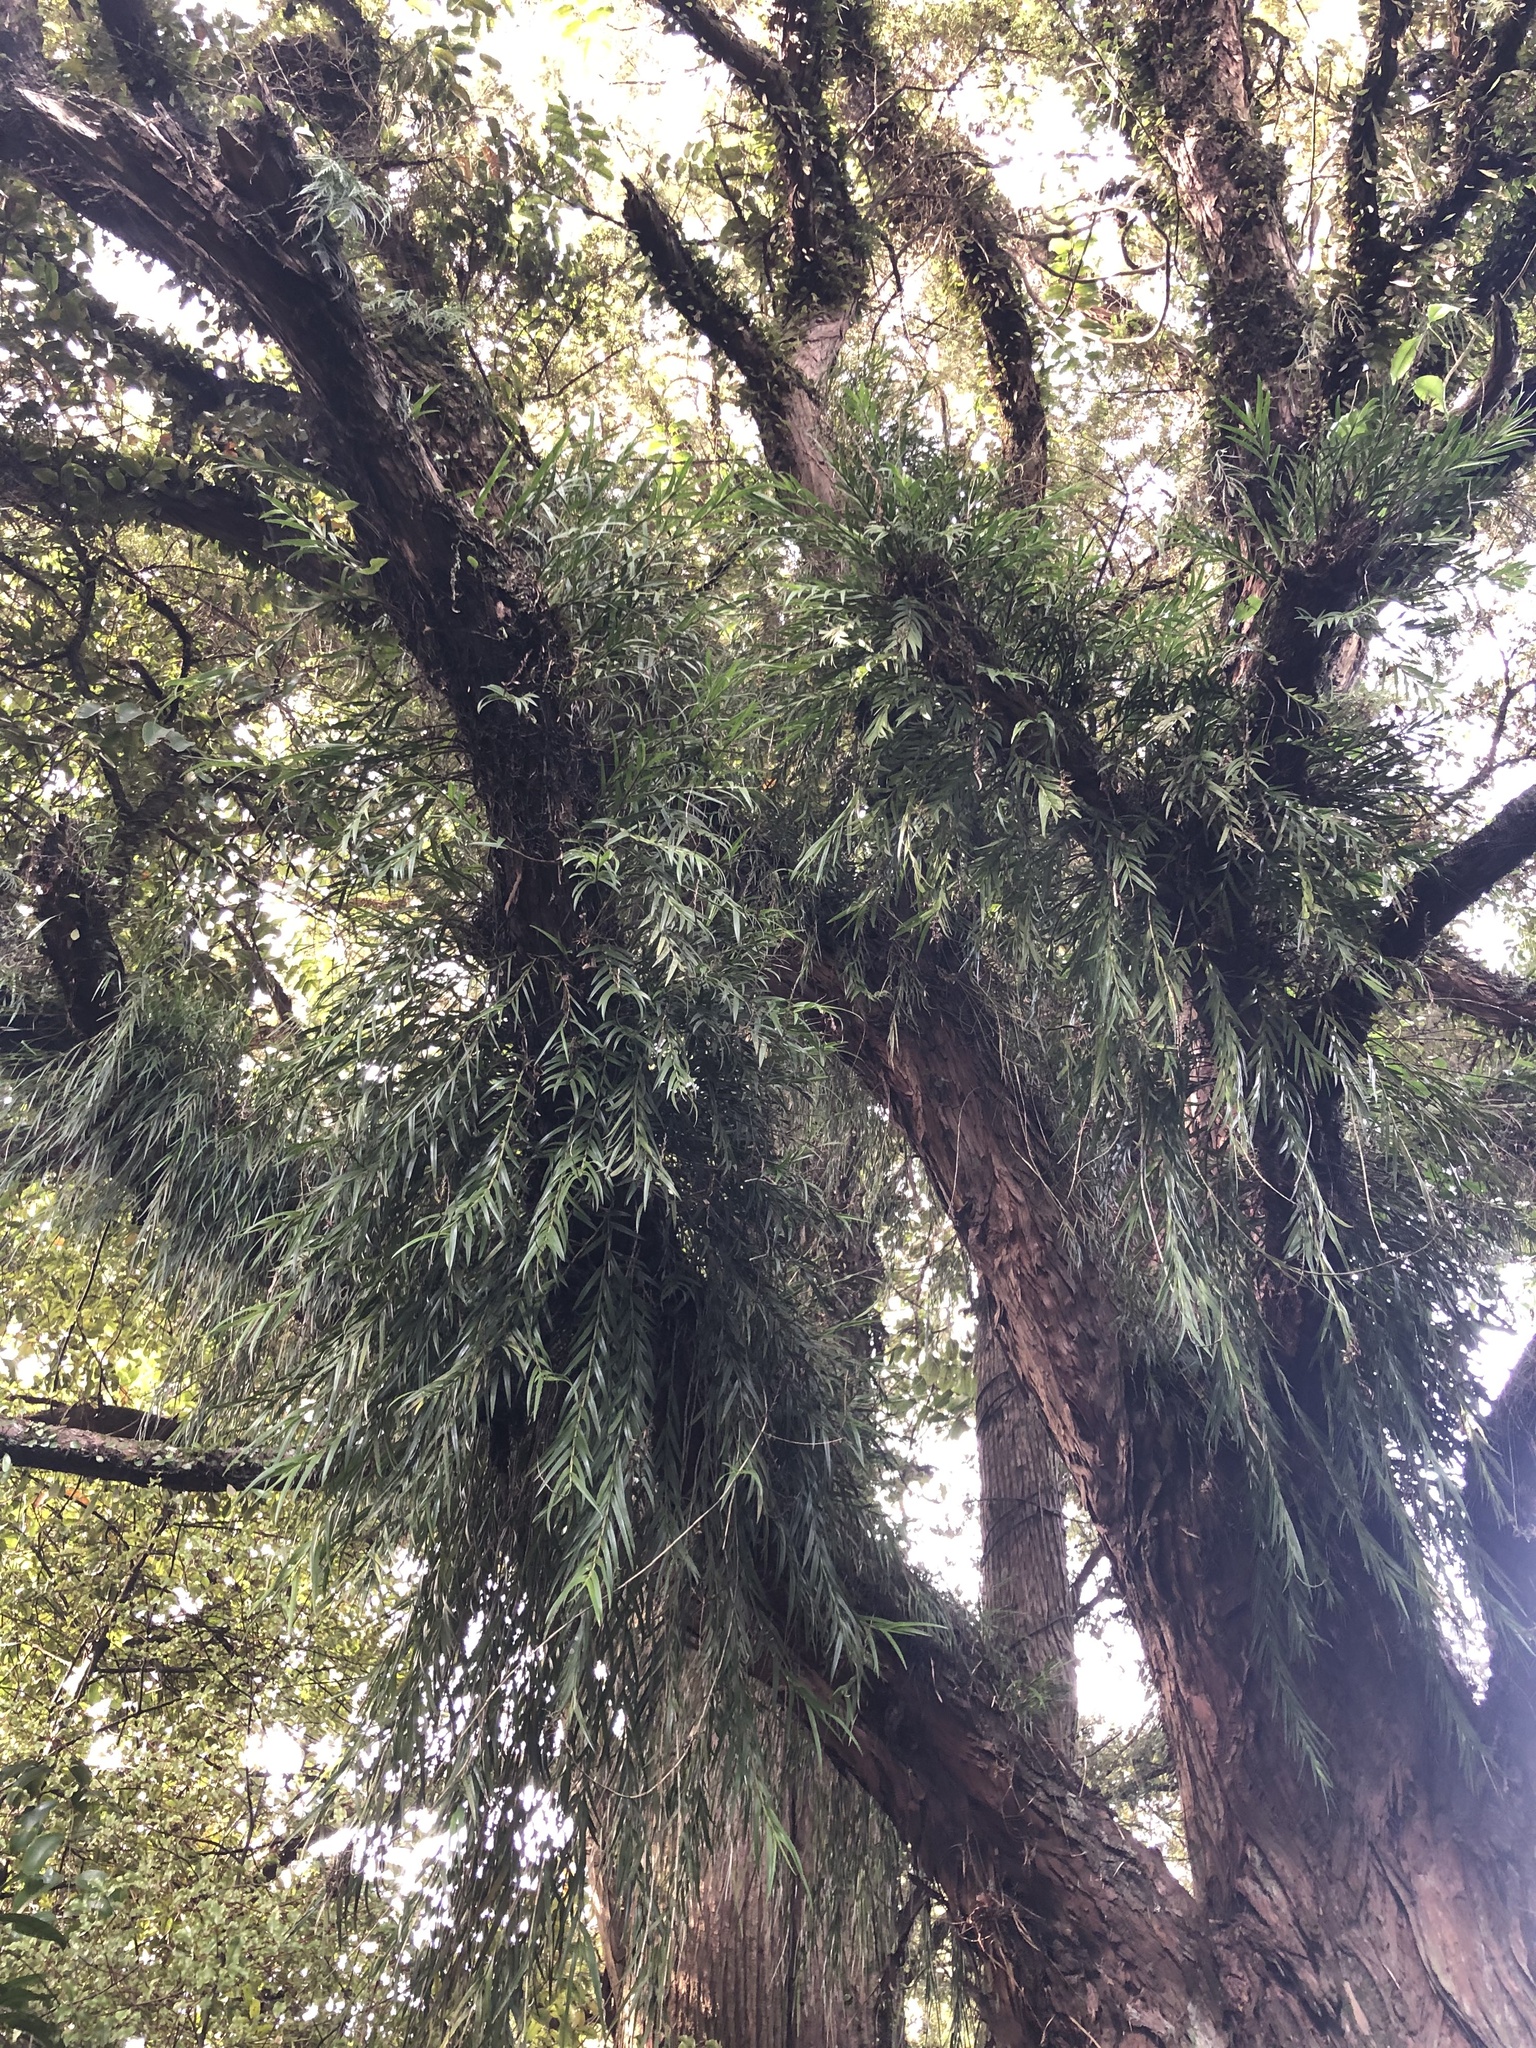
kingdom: Plantae
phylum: Tracheophyta
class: Liliopsida
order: Asparagales
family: Orchidaceae
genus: Earina
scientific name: Earina autumnalis
